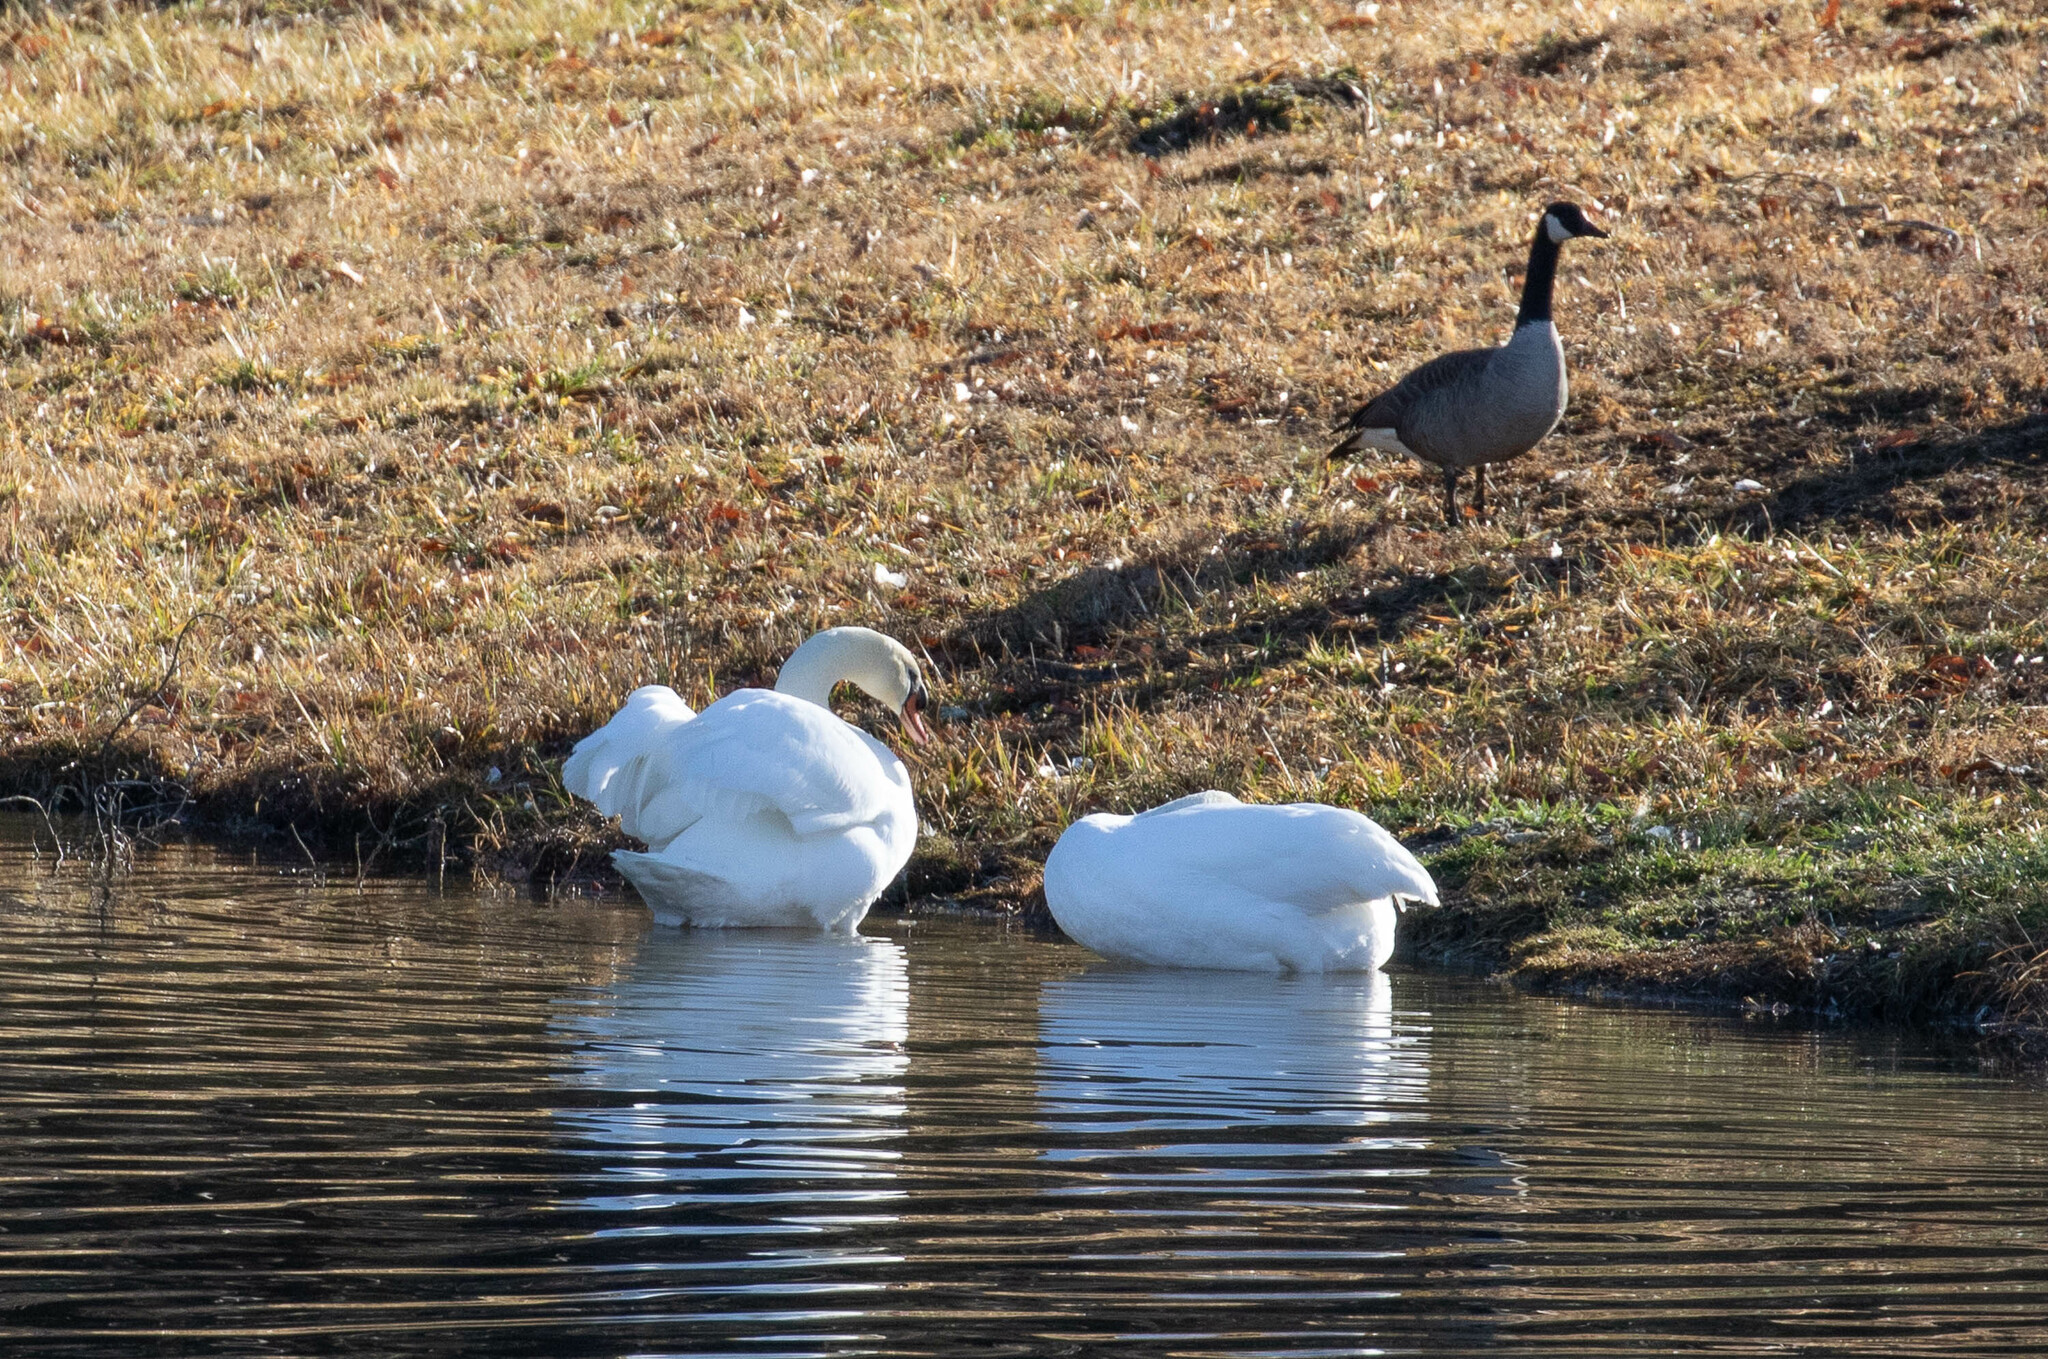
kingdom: Animalia
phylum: Chordata
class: Aves
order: Anseriformes
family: Anatidae
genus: Cygnus
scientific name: Cygnus olor
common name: Mute swan
